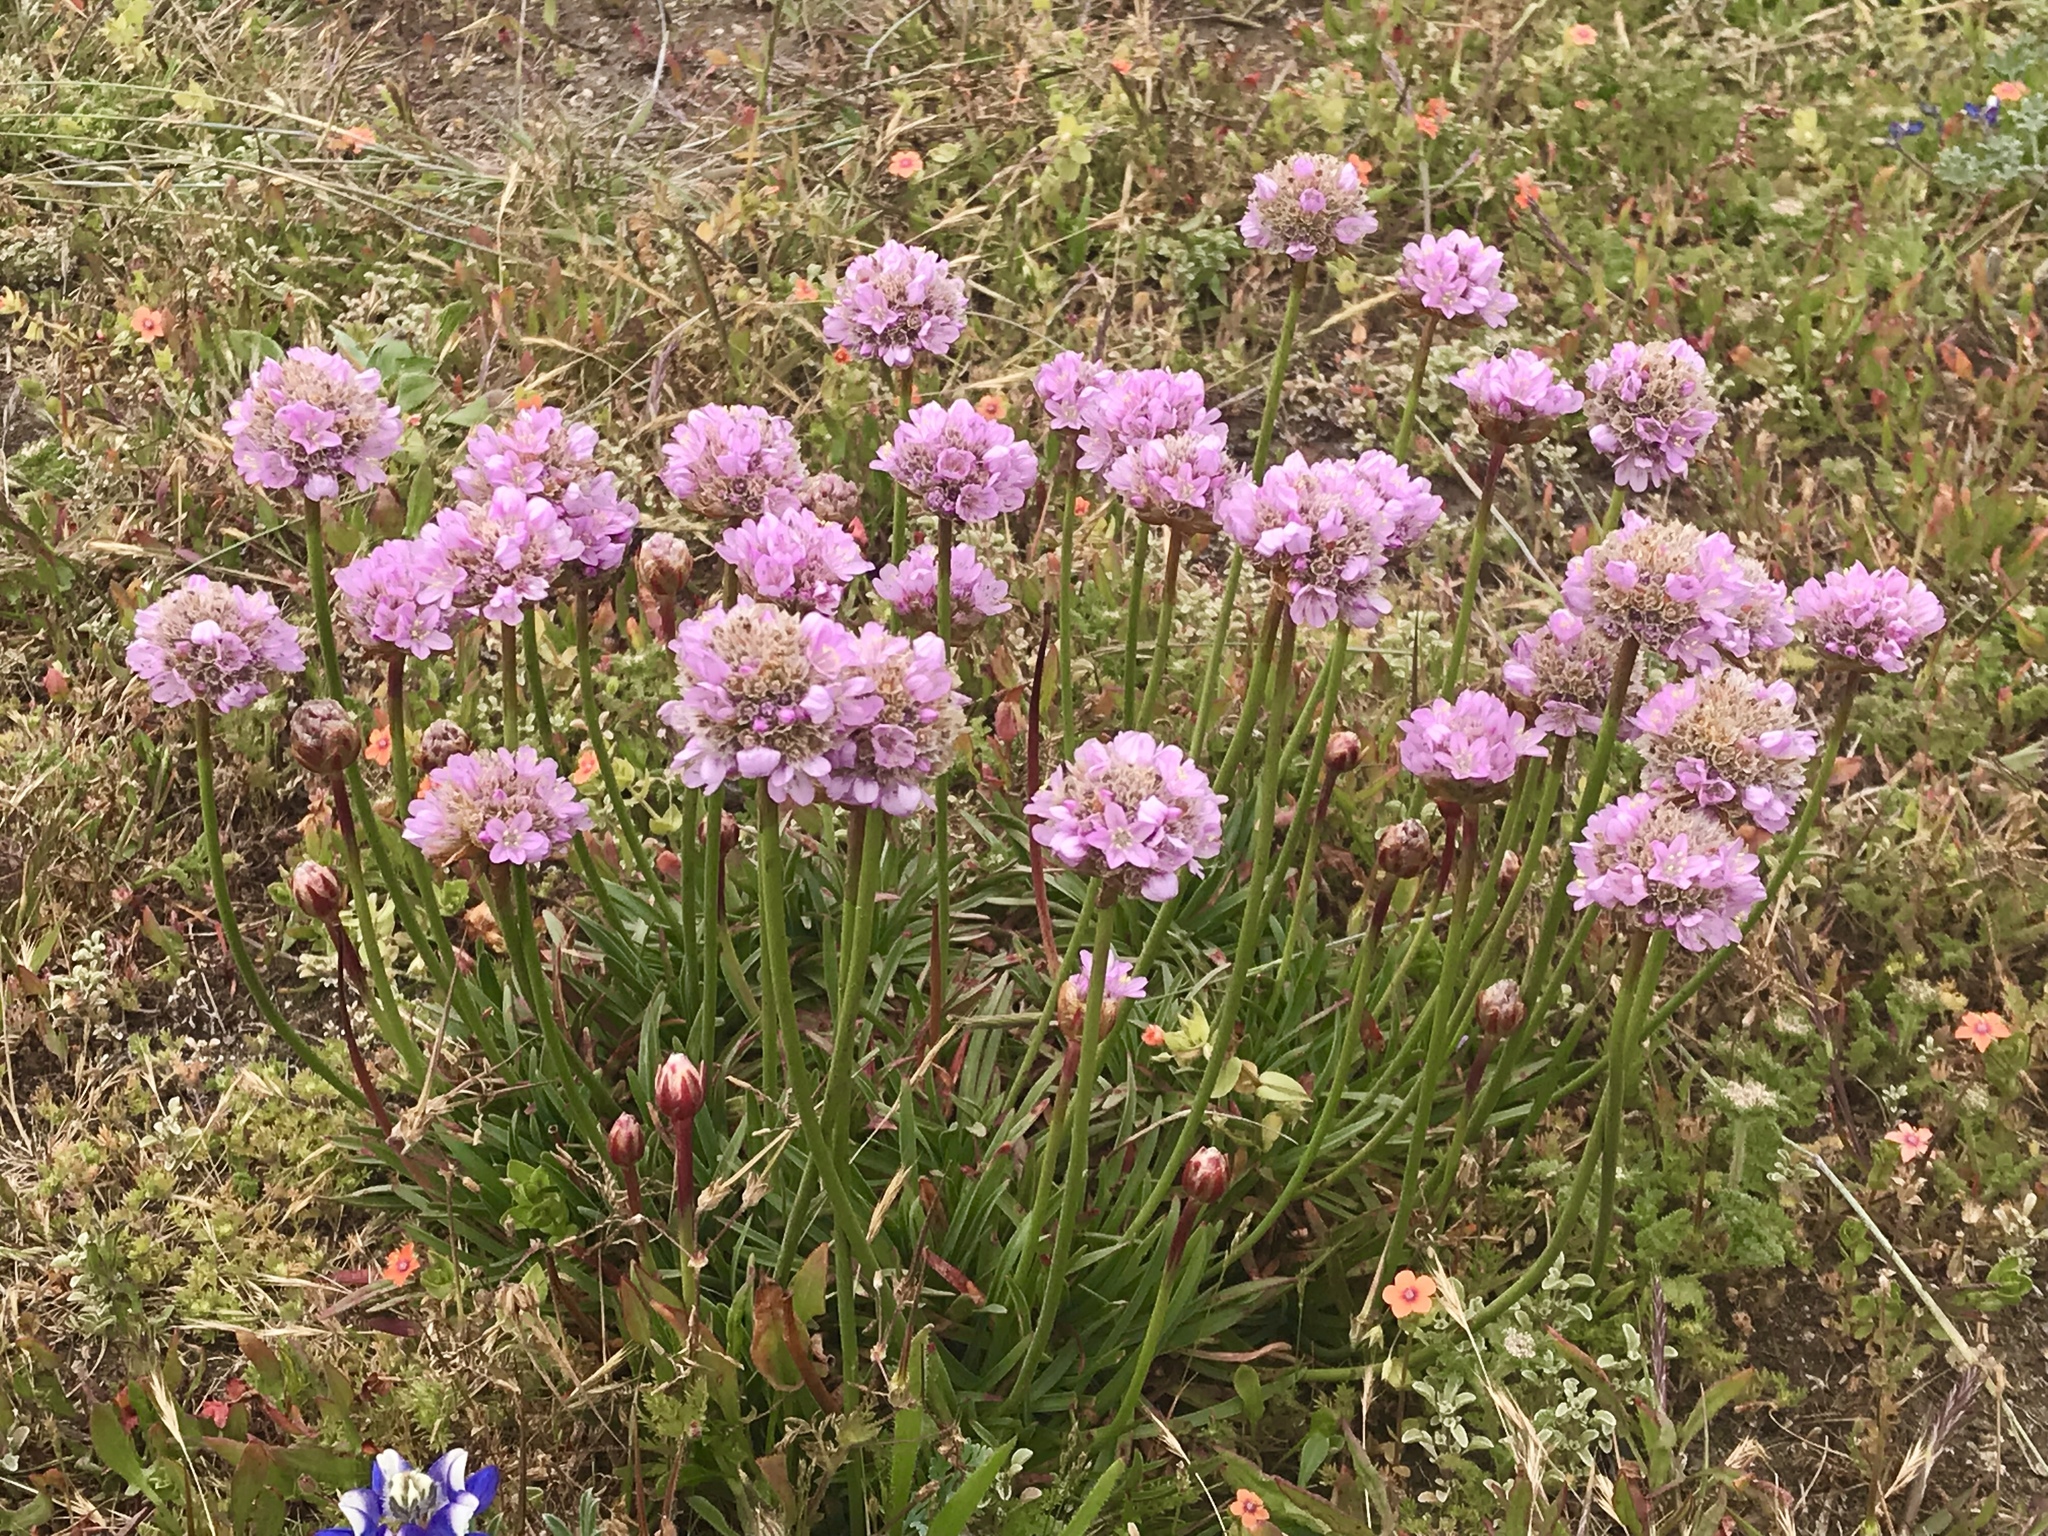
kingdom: Plantae
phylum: Tracheophyta
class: Magnoliopsida
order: Caryophyllales
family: Plumbaginaceae
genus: Armeria
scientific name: Armeria maritima
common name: Thrift
